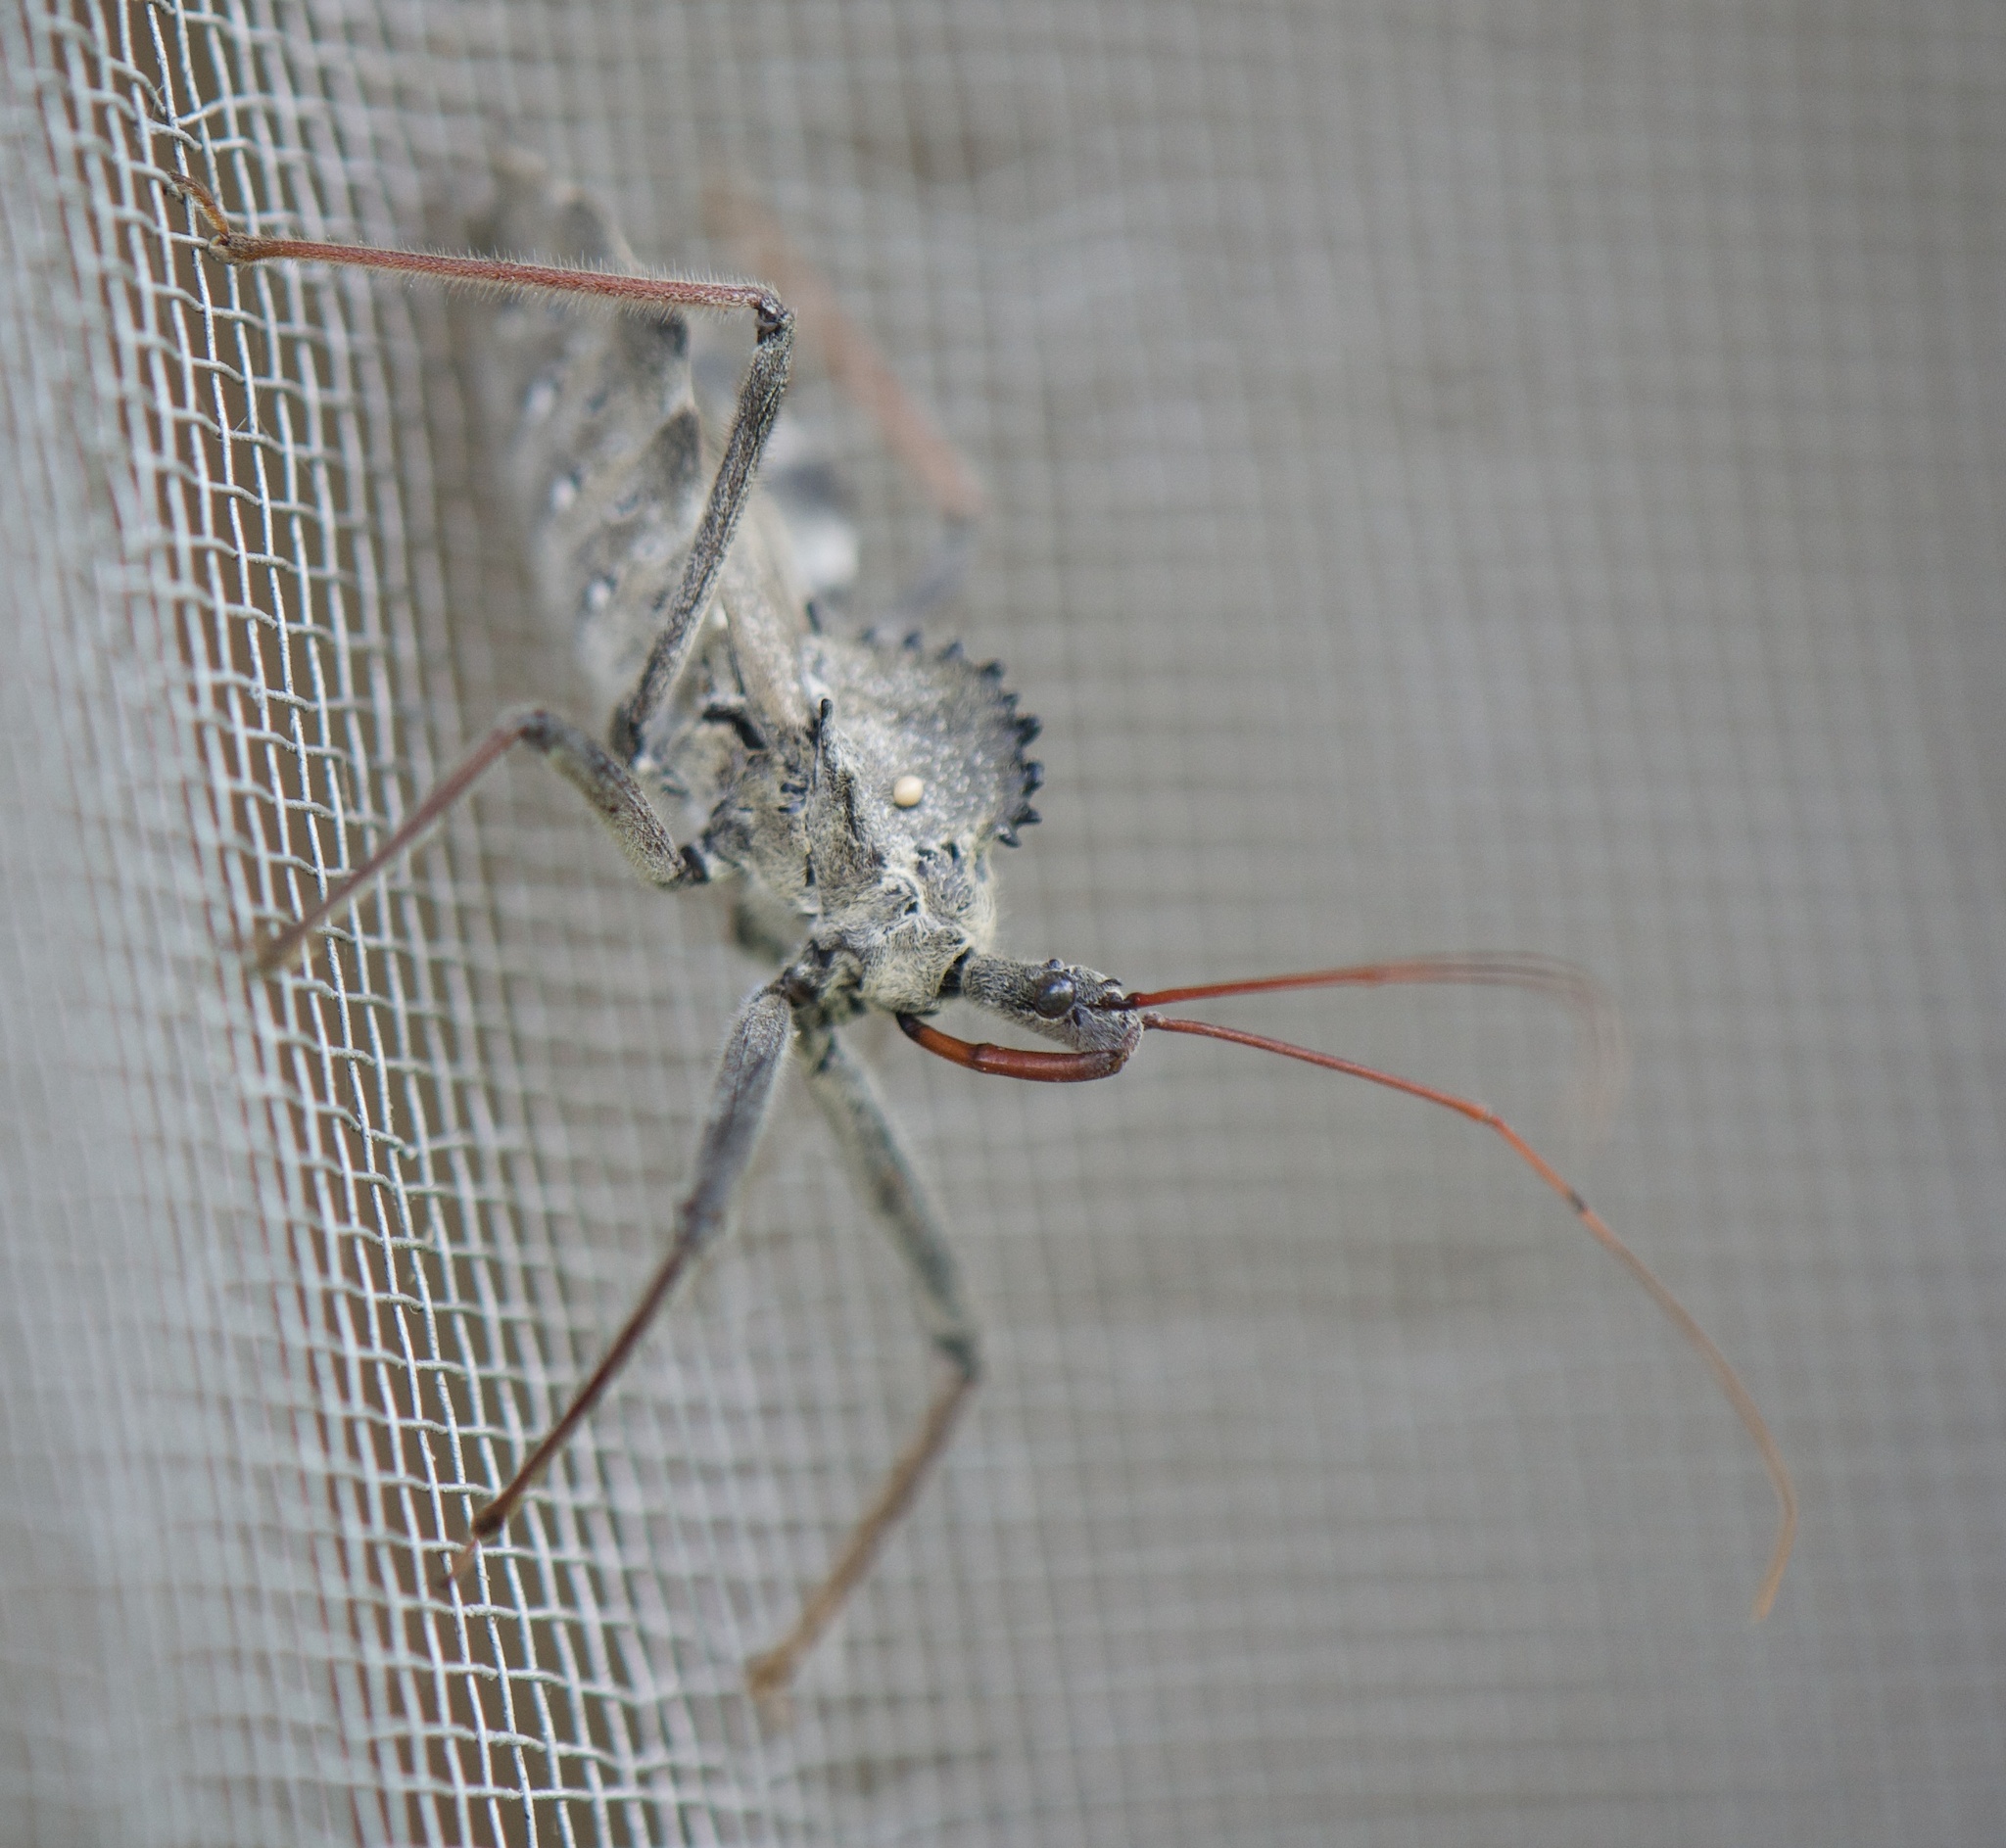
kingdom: Animalia
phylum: Arthropoda
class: Insecta
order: Hemiptera
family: Reduviidae
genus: Arilus
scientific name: Arilus cristatus
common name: North american wheel bug
